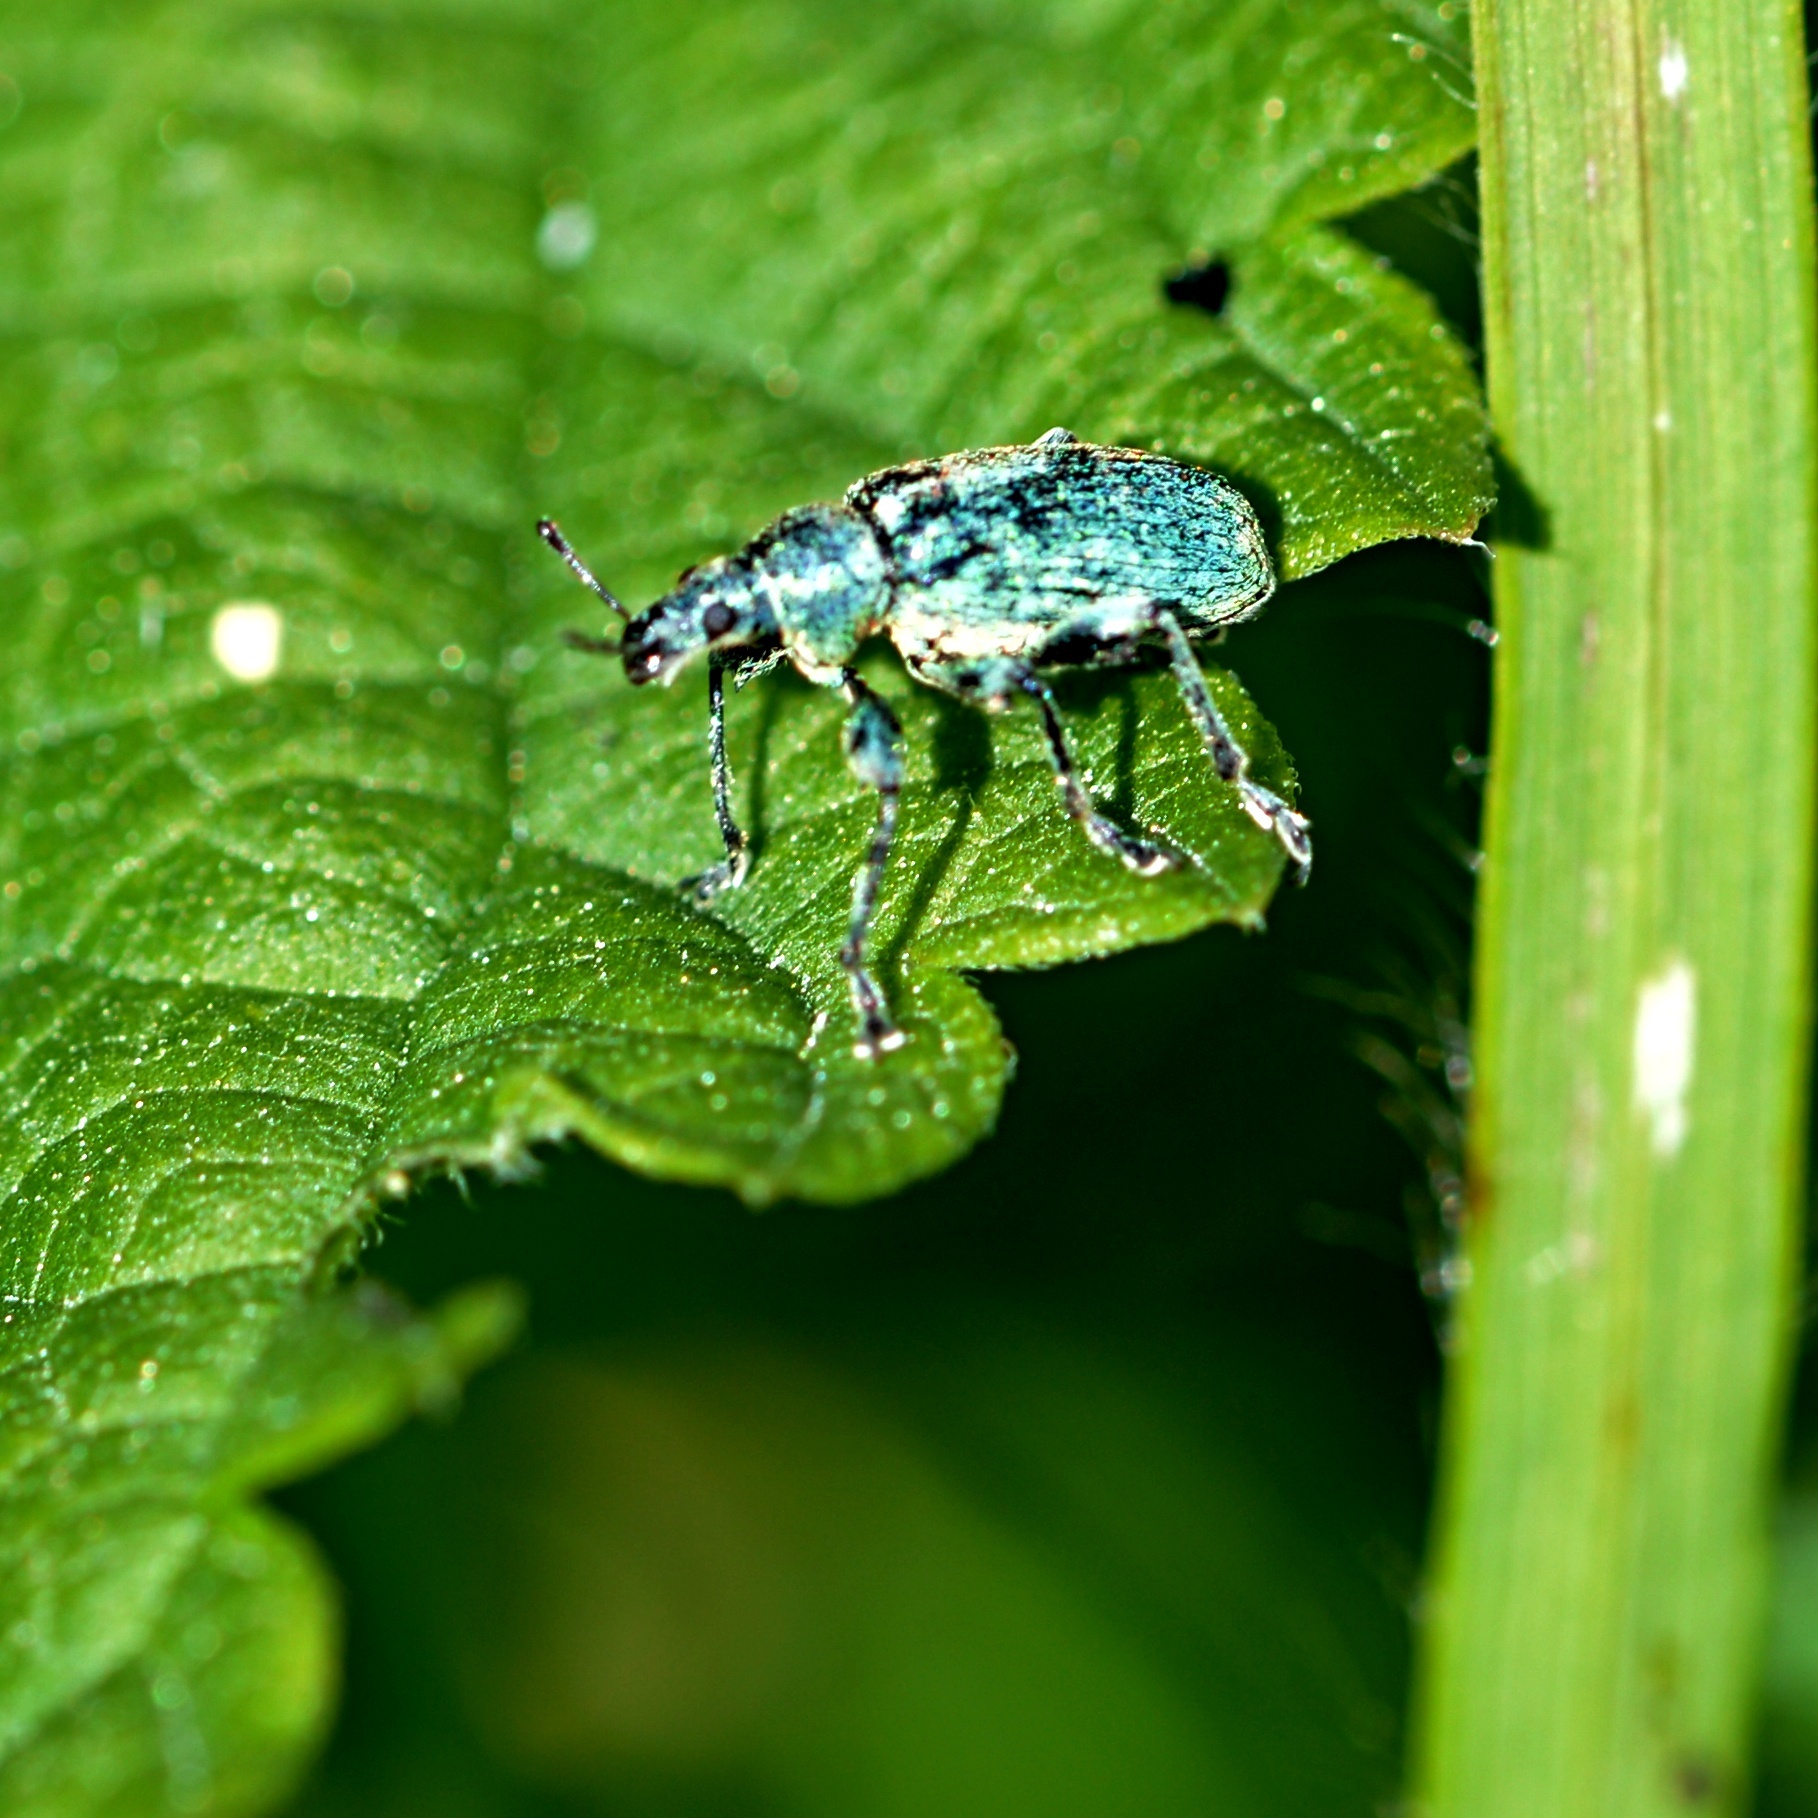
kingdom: Animalia
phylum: Arthropoda
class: Insecta
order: Coleoptera
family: Curculionidae
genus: Phyllobius
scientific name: Phyllobius pomaceus
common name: Green nettle weevil
